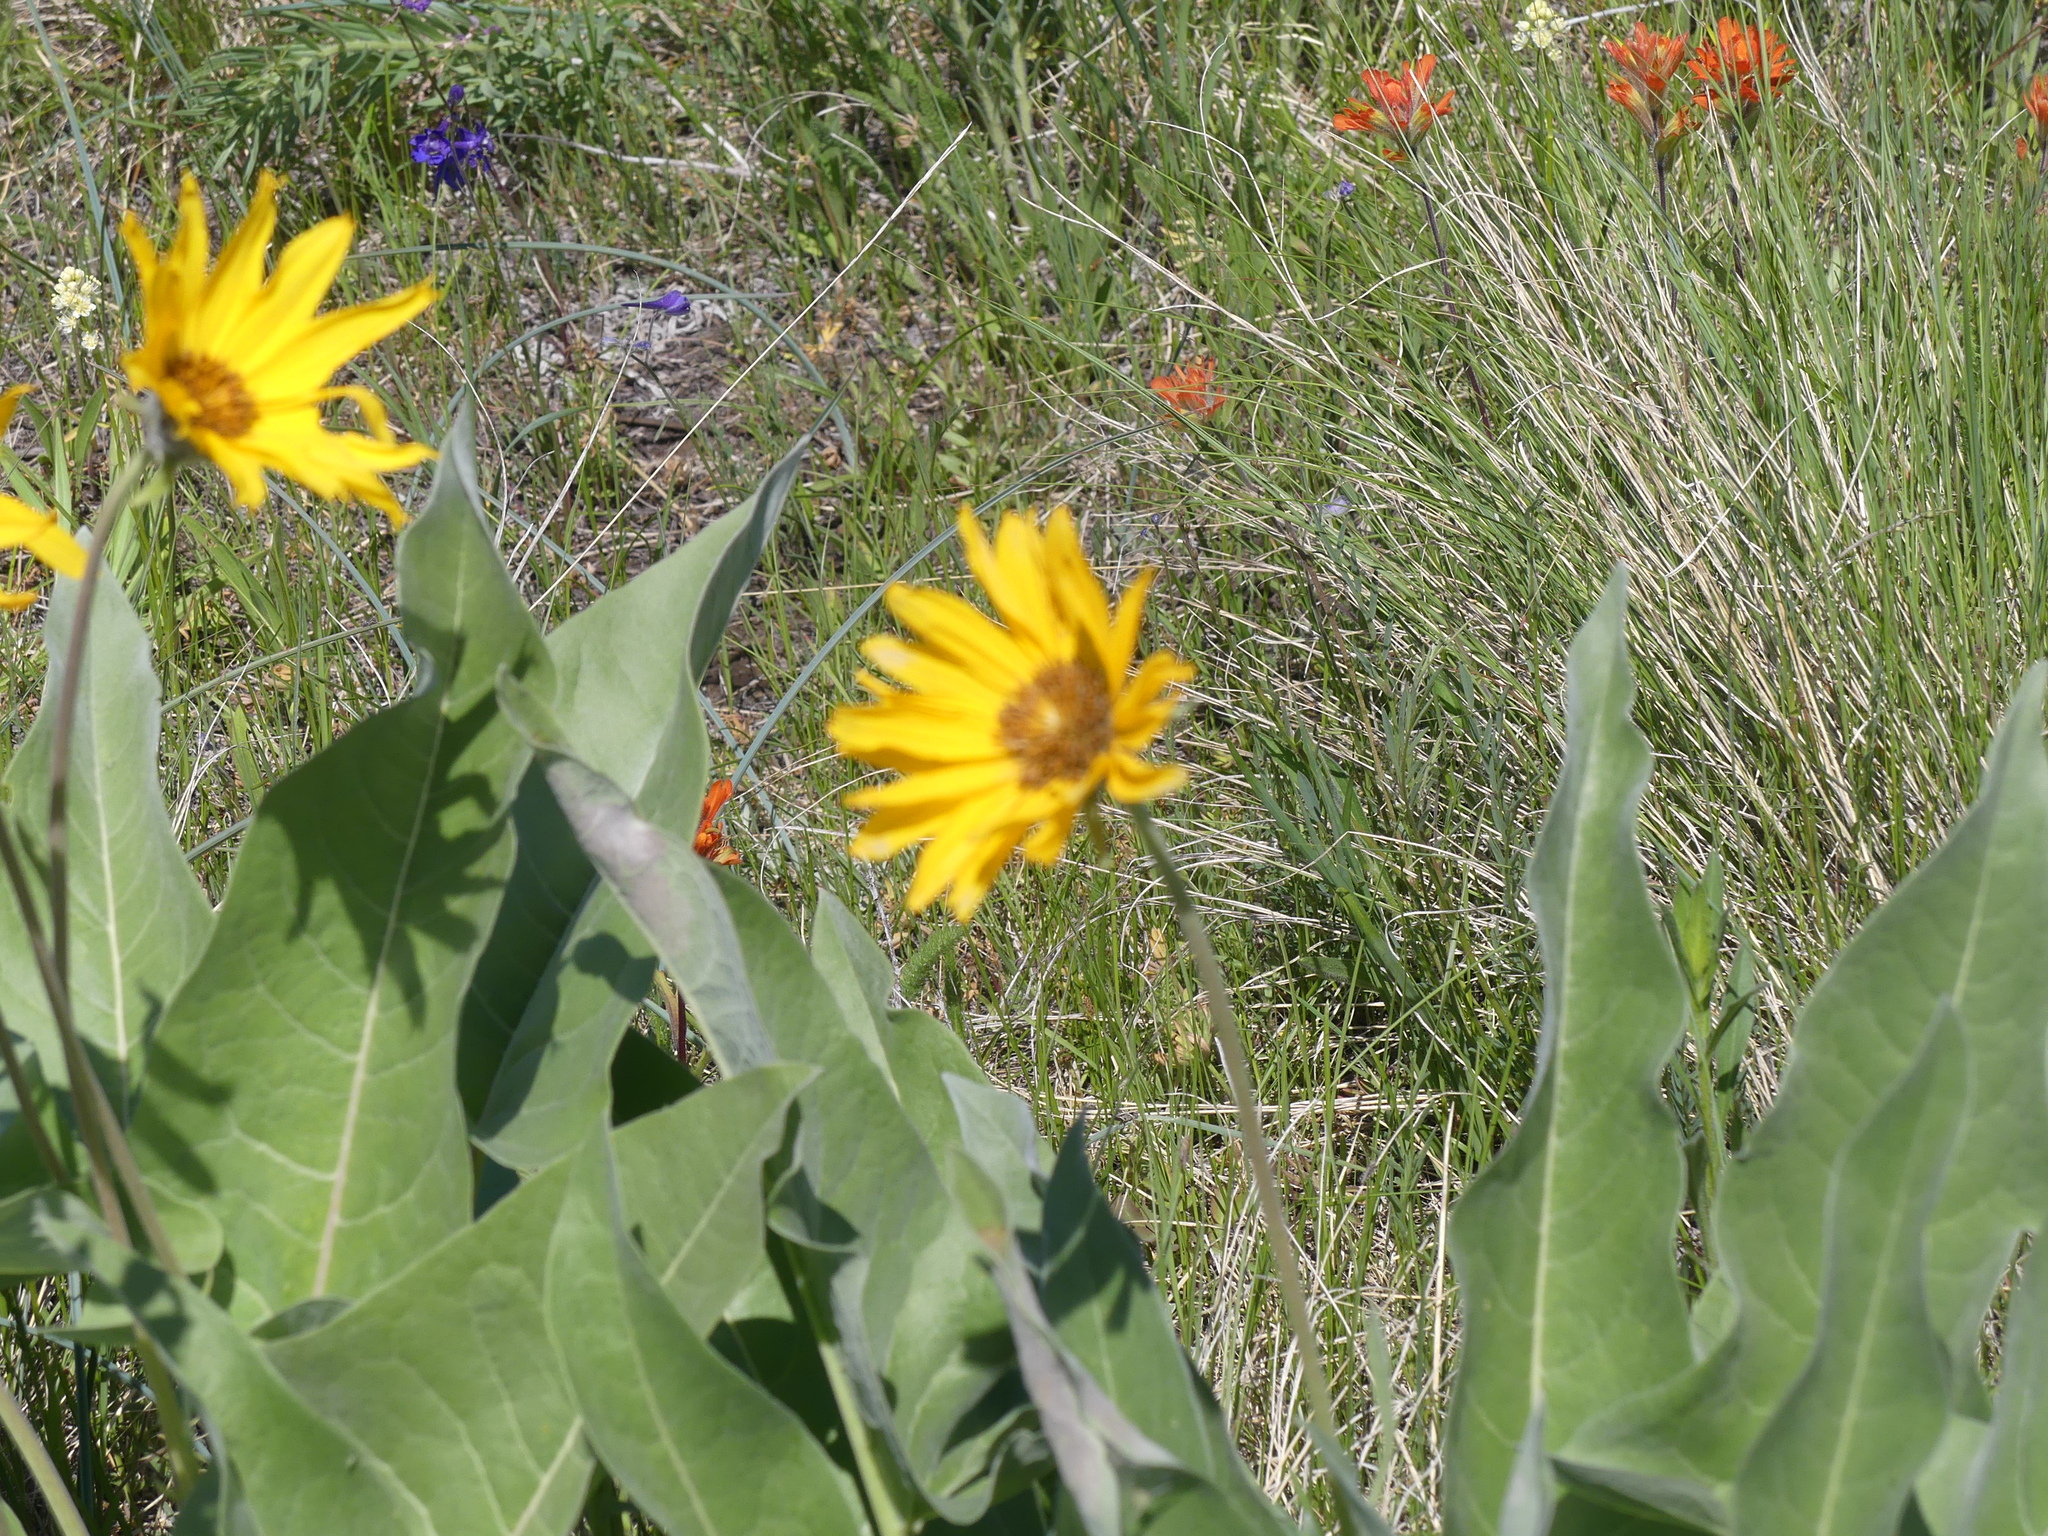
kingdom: Plantae
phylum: Tracheophyta
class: Magnoliopsida
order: Asterales
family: Asteraceae
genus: Wyethia
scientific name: Wyethia sagittata
